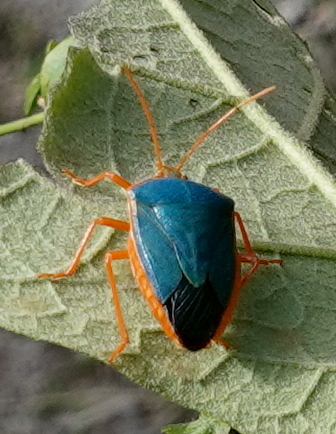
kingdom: Animalia
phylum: Arthropoda
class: Insecta
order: Hemiptera
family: Pentatomidae
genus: Edessa
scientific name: Edessa rufomarginata
